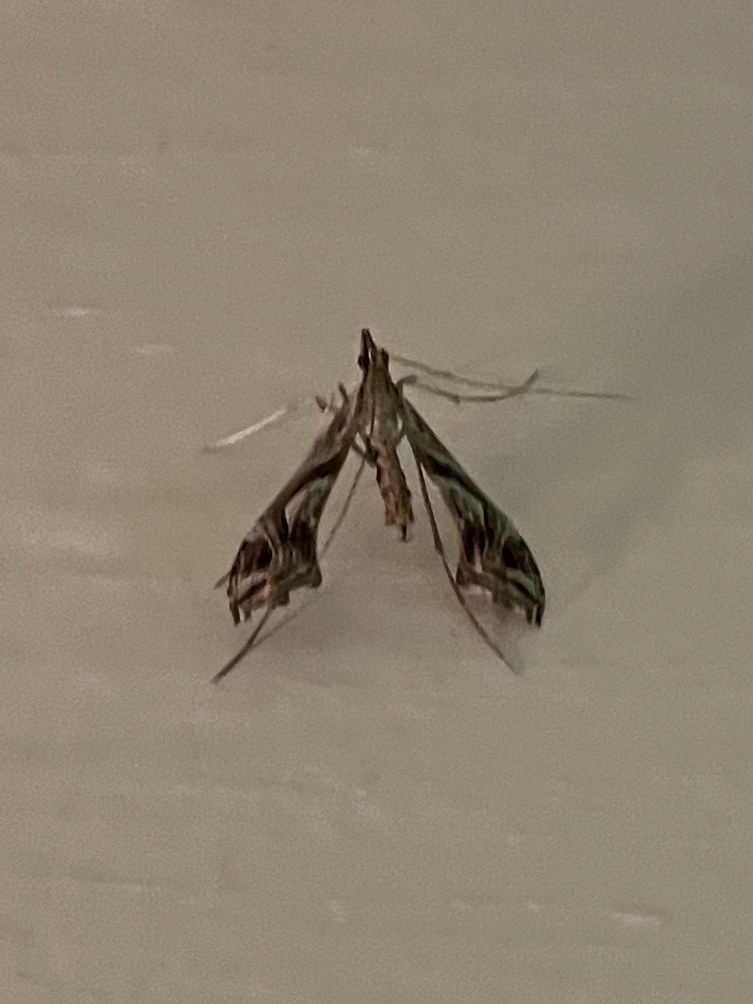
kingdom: Animalia
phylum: Arthropoda
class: Insecta
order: Lepidoptera
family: Crambidae
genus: Lineodes
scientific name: Lineodes integra
